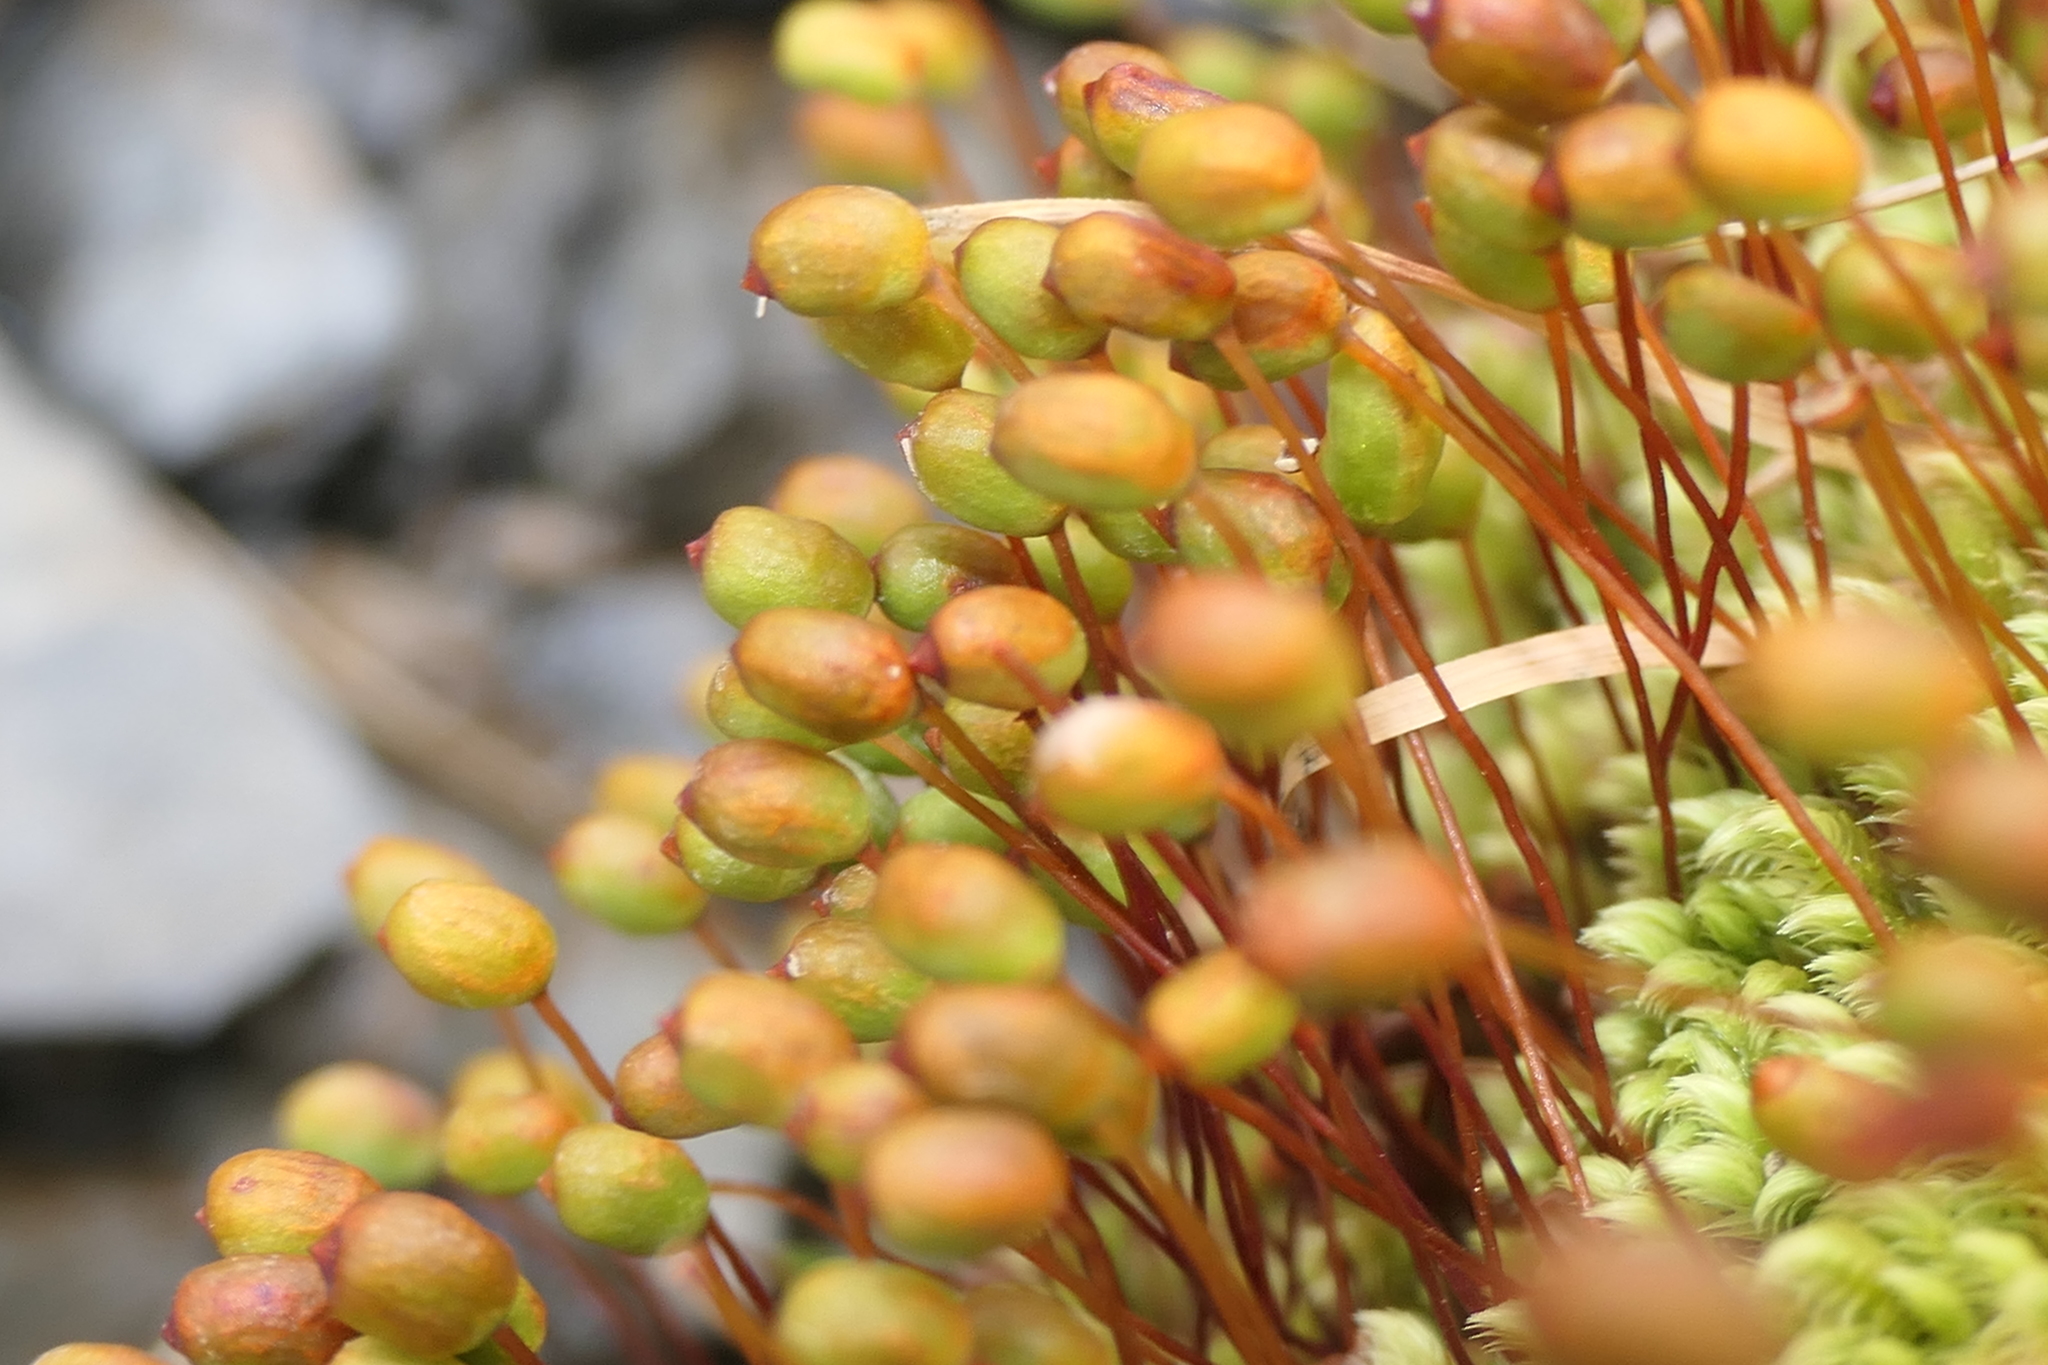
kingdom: Plantae
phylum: Bryophyta
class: Bryopsida
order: Bartramiales
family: Bartramiaceae
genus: Philonotis
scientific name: Philonotis calcarea
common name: Thick-nerved apple-moss
